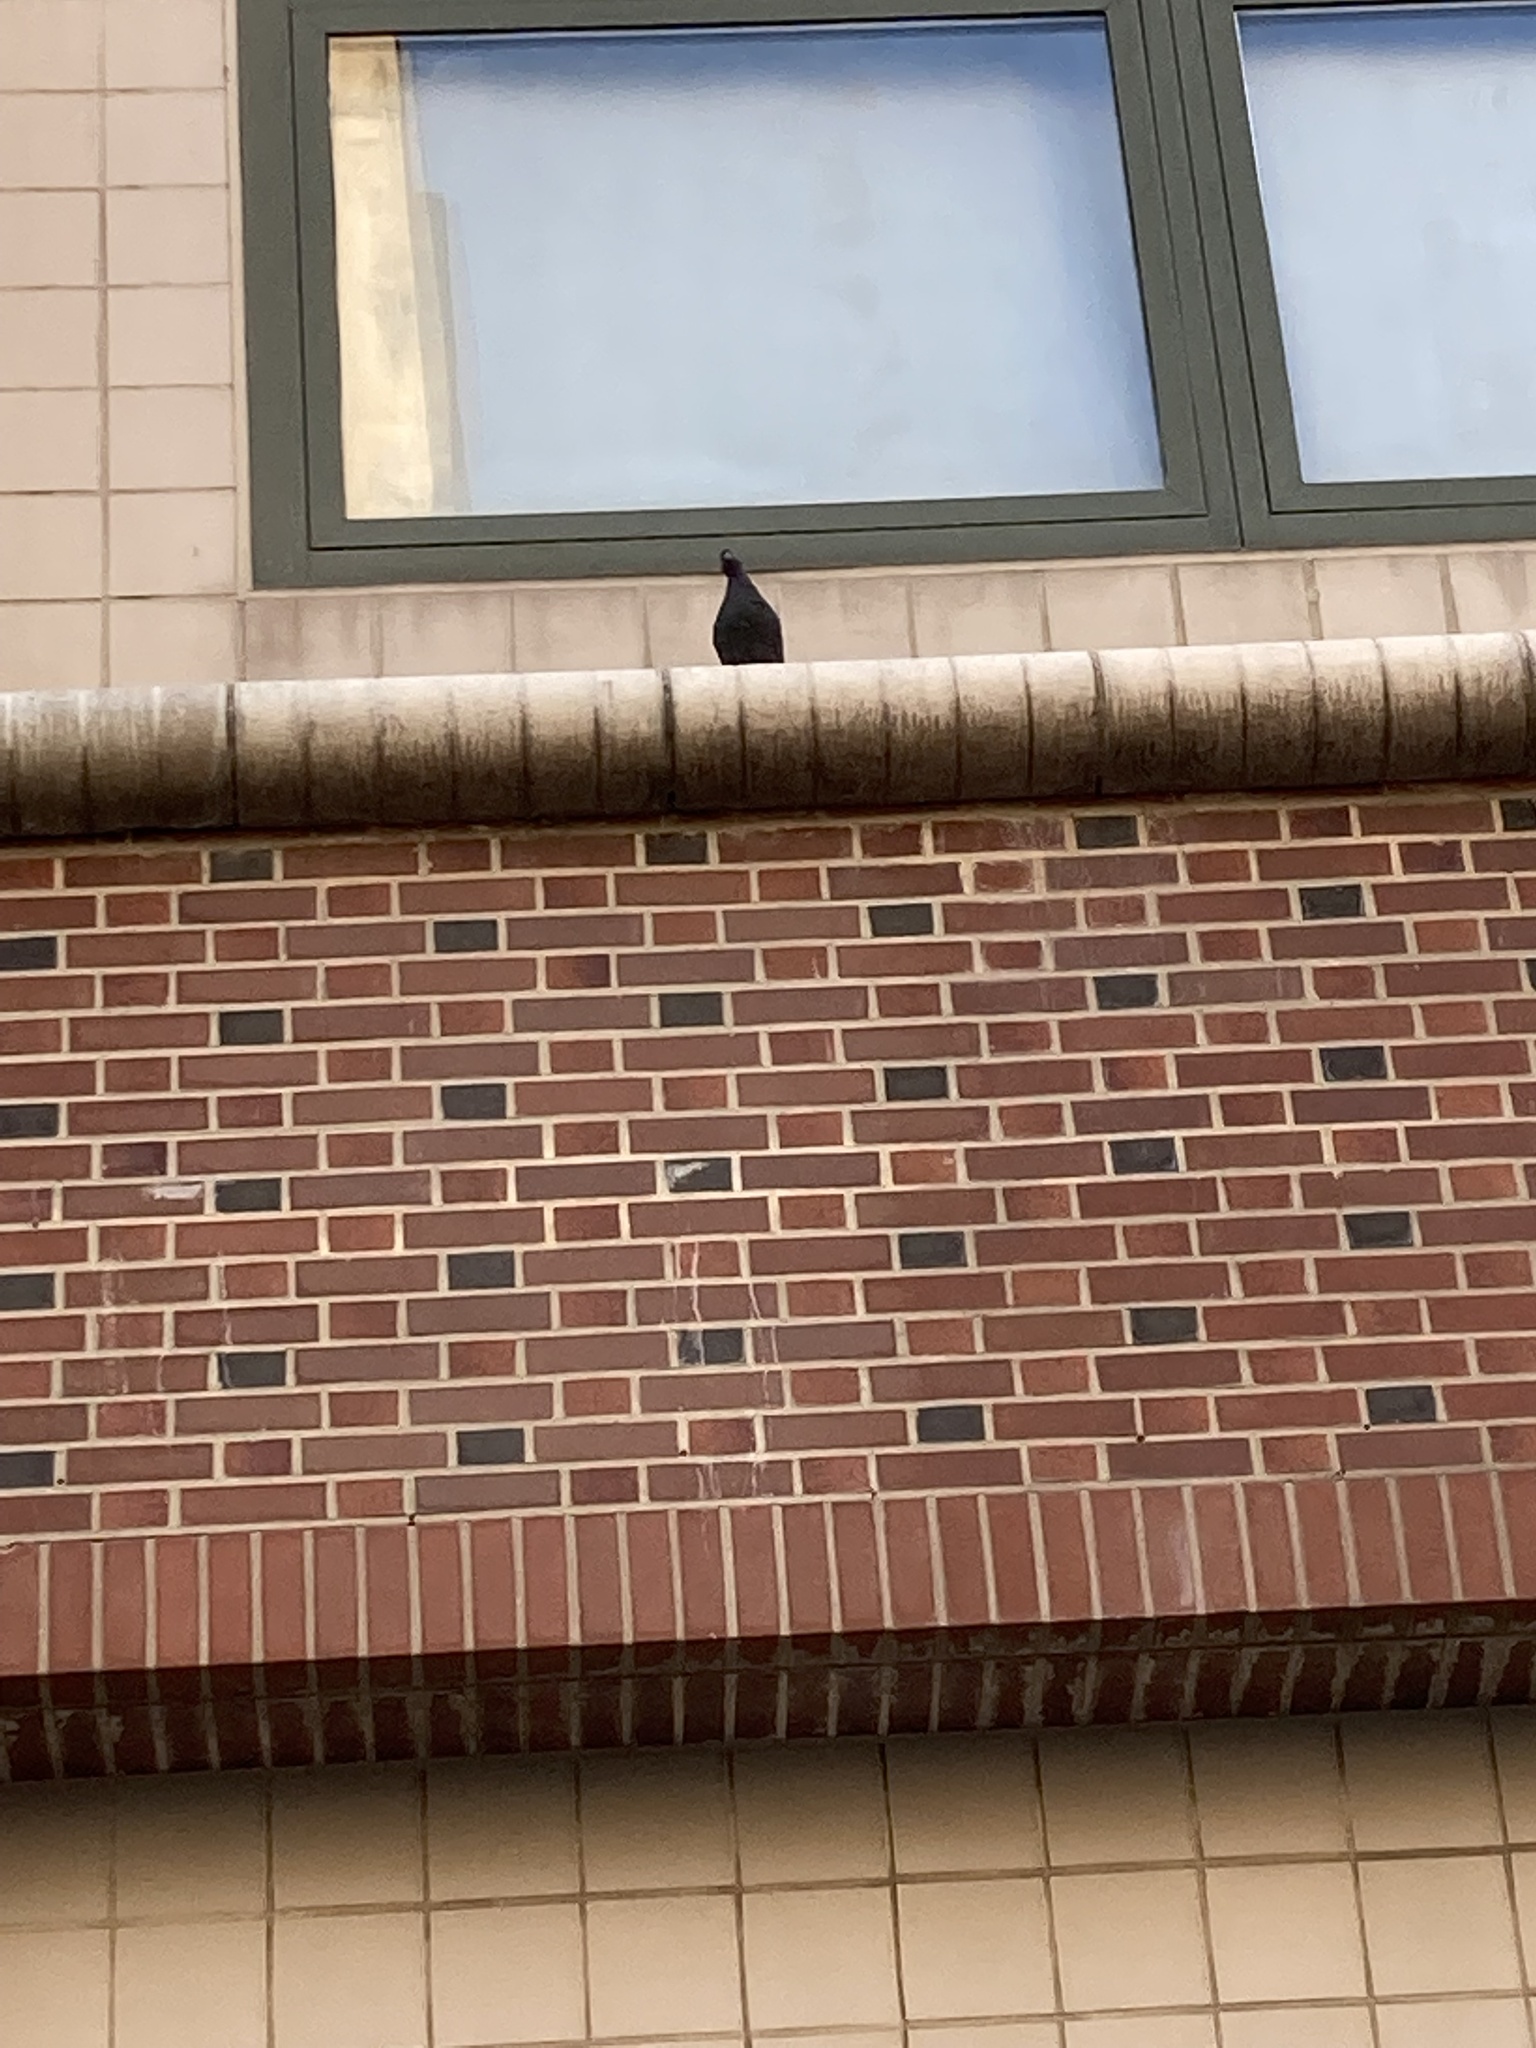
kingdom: Animalia
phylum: Chordata
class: Aves
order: Columbiformes
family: Columbidae
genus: Columba
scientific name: Columba livia
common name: Rock pigeon
